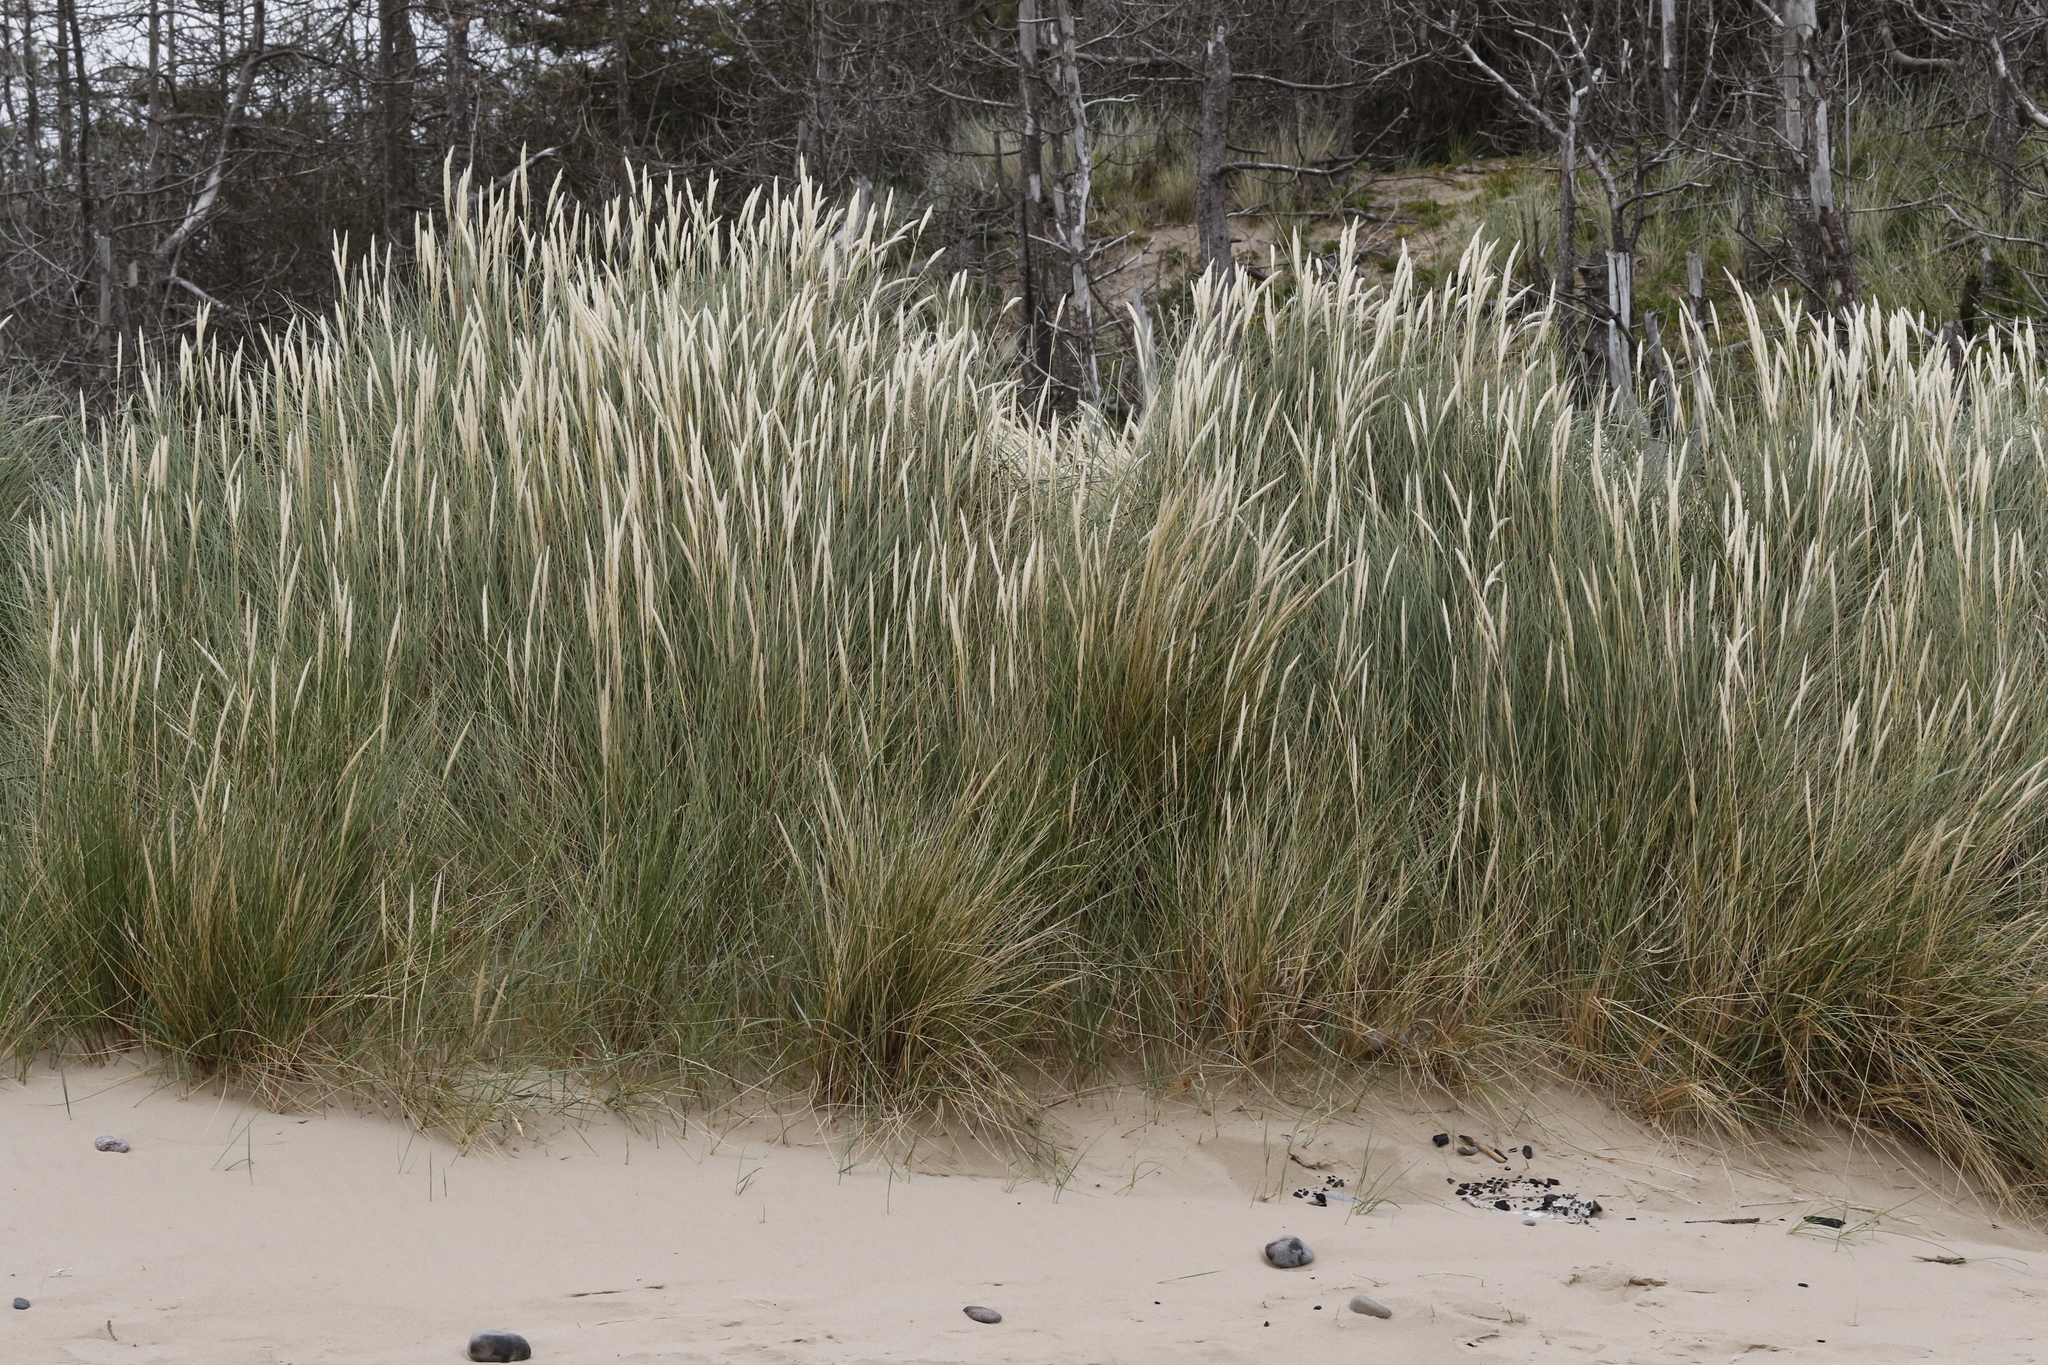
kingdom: Plantae
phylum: Tracheophyta
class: Liliopsida
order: Poales
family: Poaceae
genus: Calamagrostis
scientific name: Calamagrostis arenaria
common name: European beachgrass
